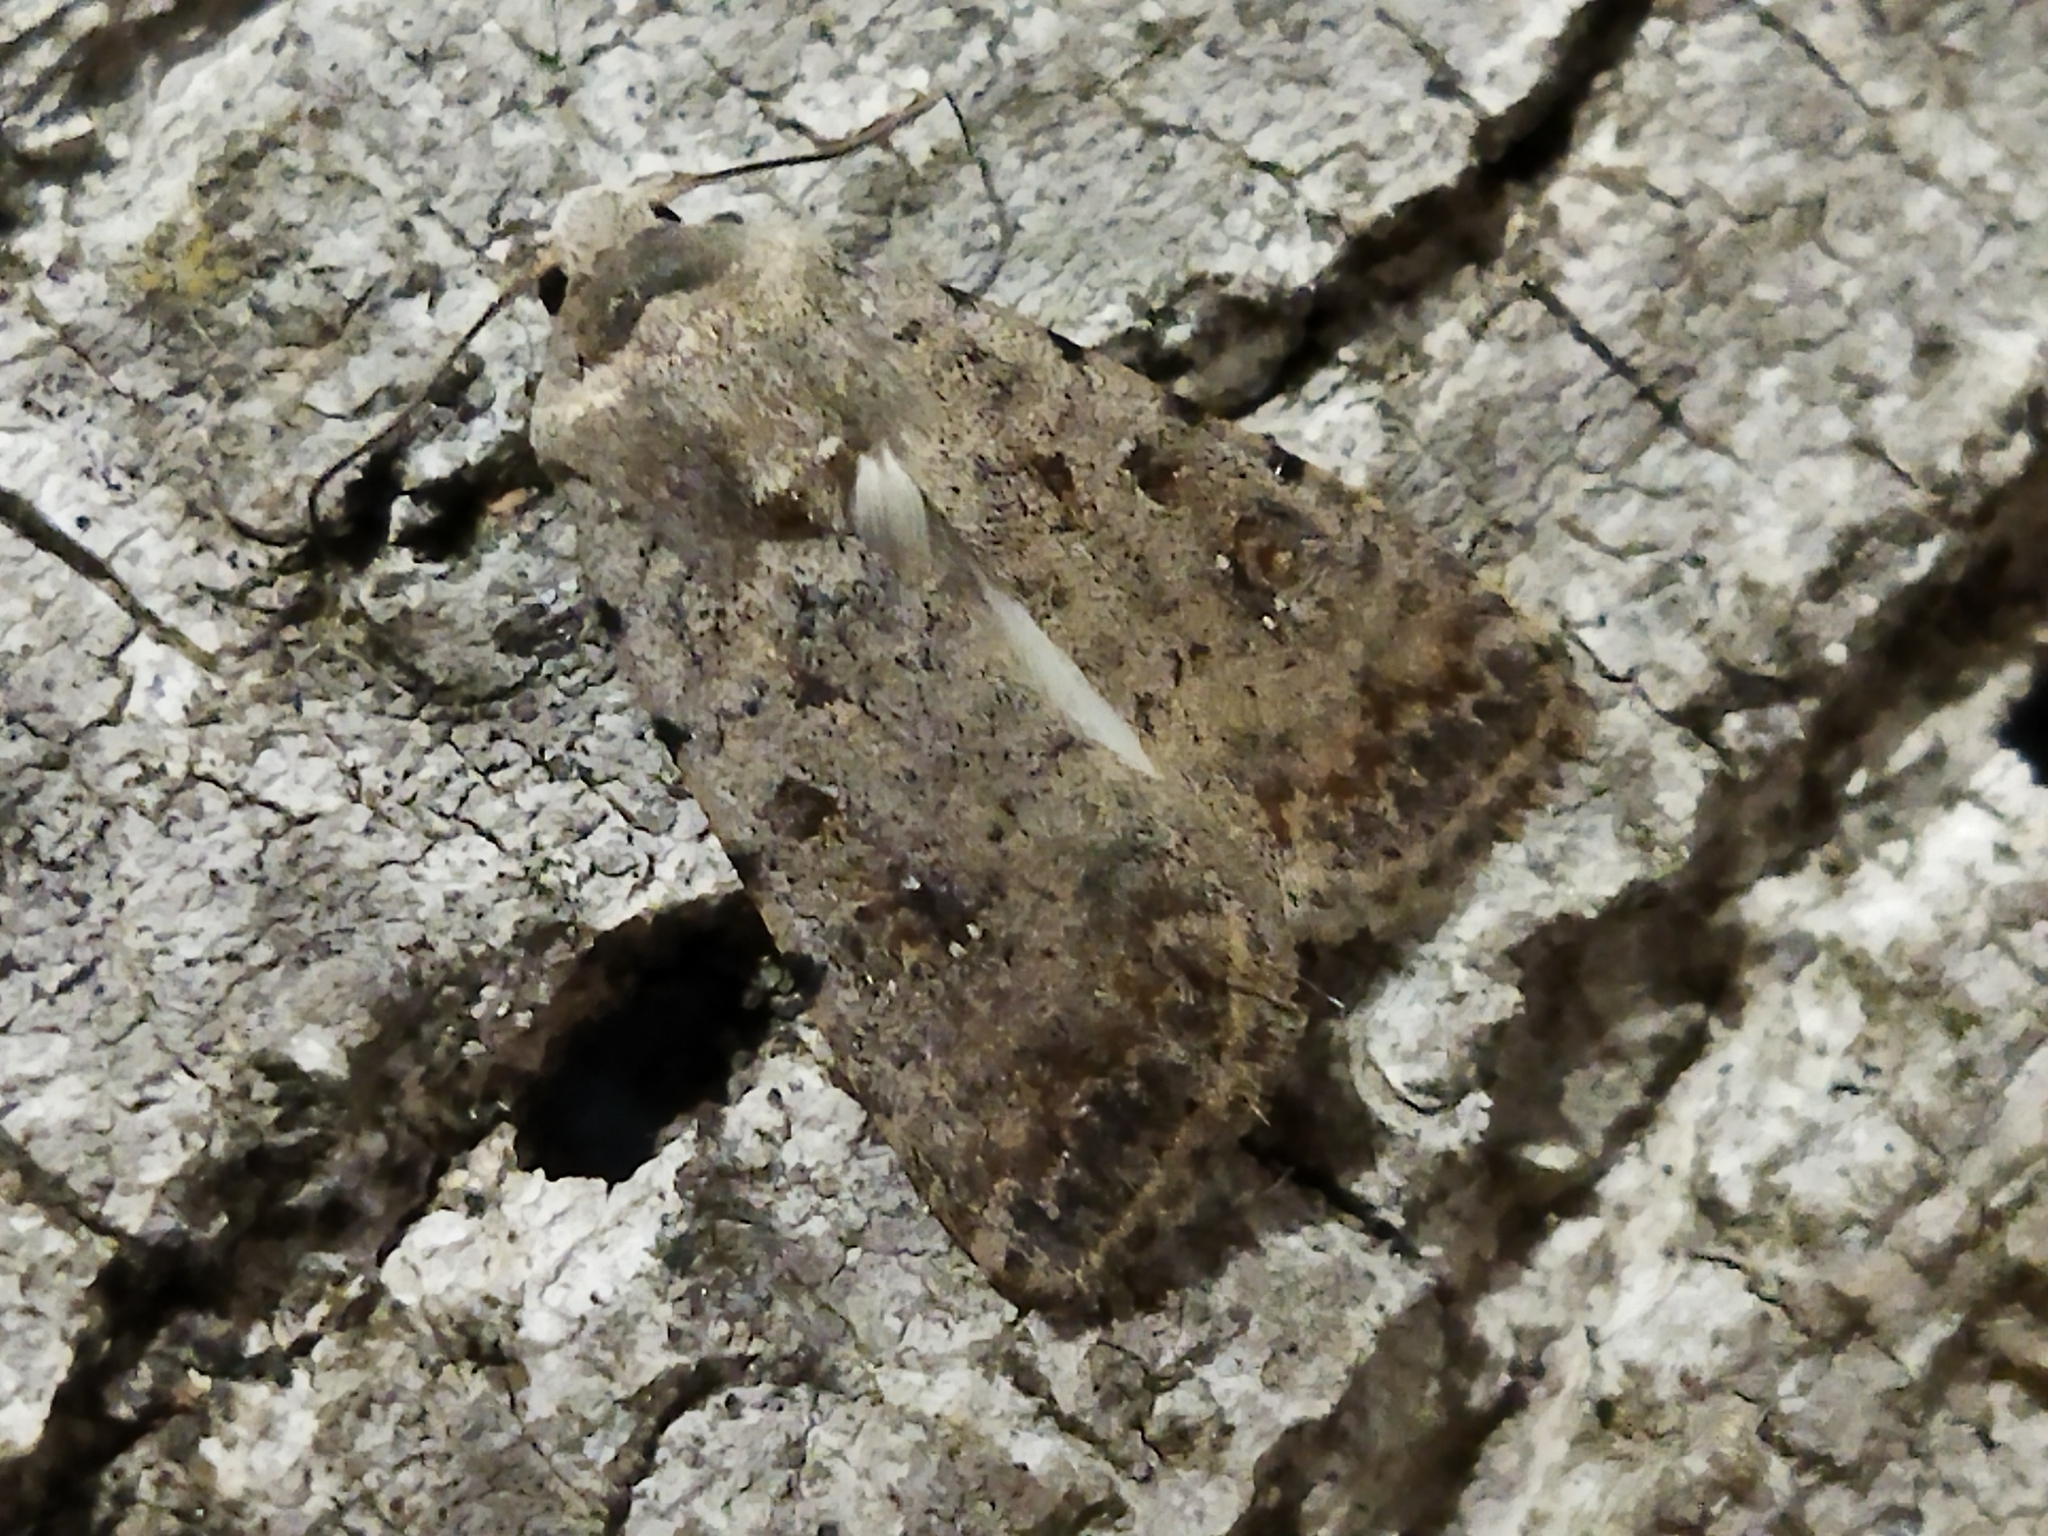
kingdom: Animalia
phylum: Arthropoda
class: Insecta
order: Lepidoptera
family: Noctuidae
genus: Caradrina
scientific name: Caradrina clavipalpis
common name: Pale mottled willow
